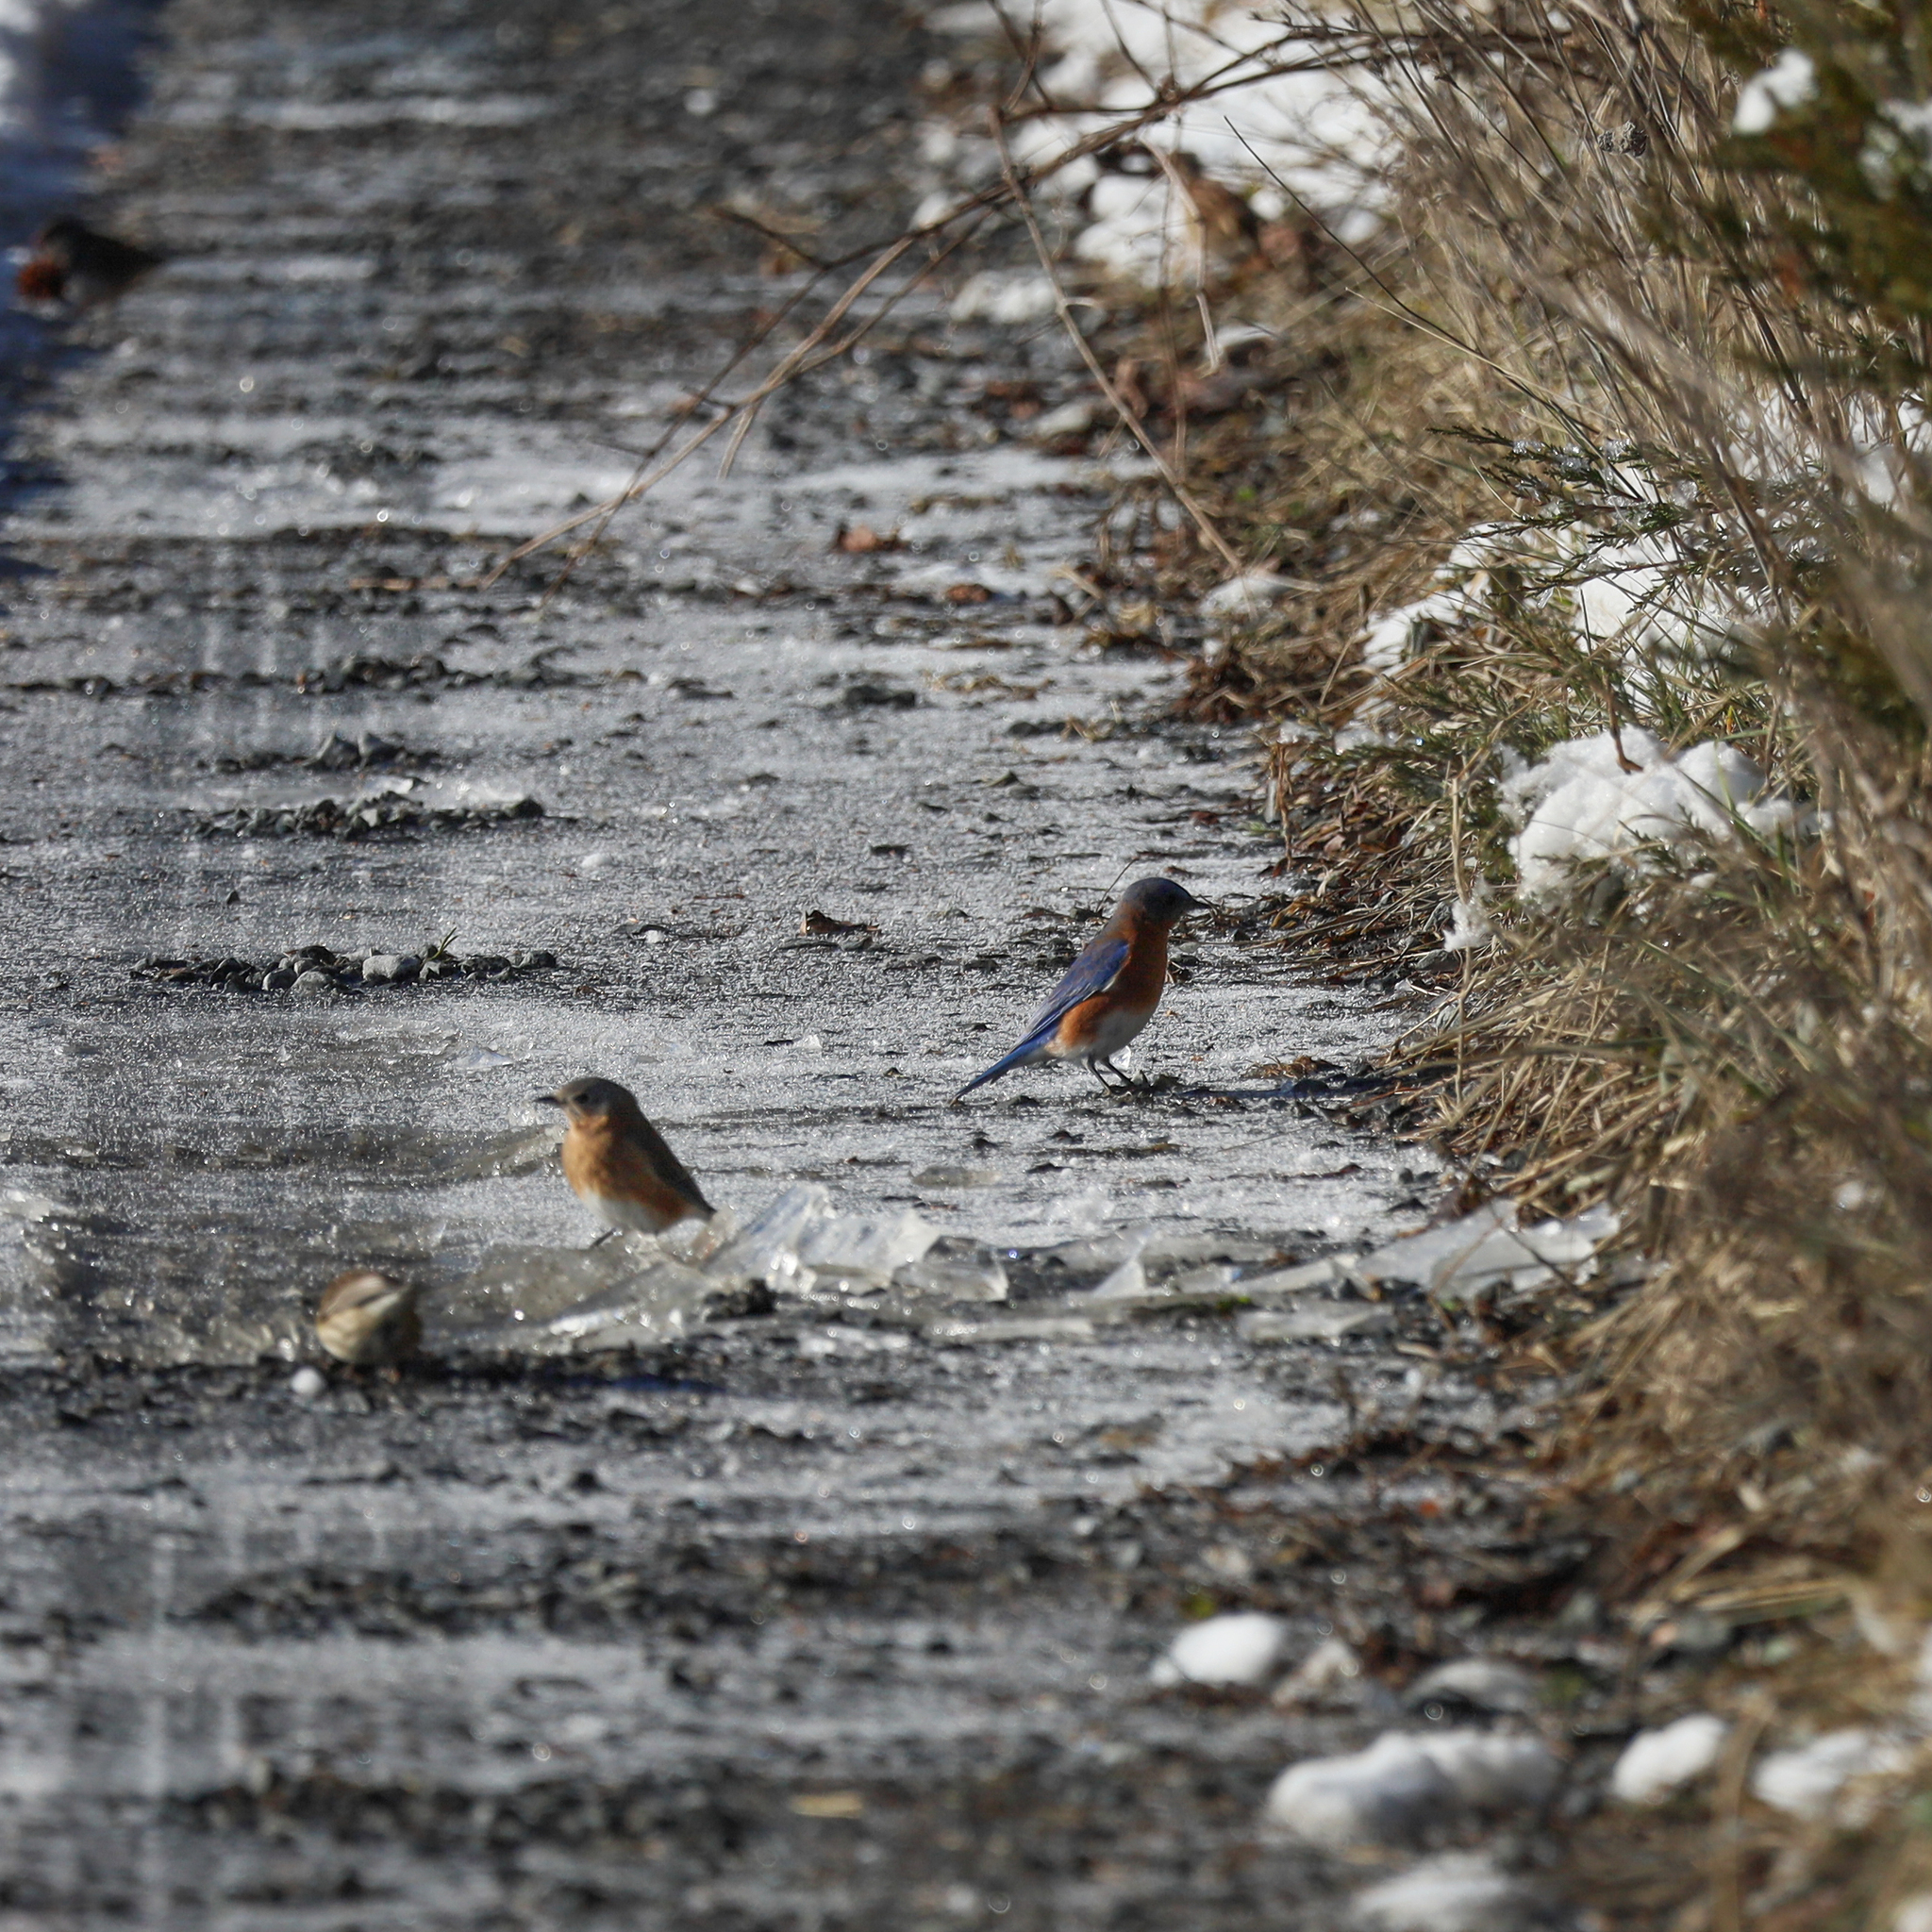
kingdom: Animalia
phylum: Chordata
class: Aves
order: Passeriformes
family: Turdidae
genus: Sialia
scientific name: Sialia sialis
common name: Eastern bluebird
